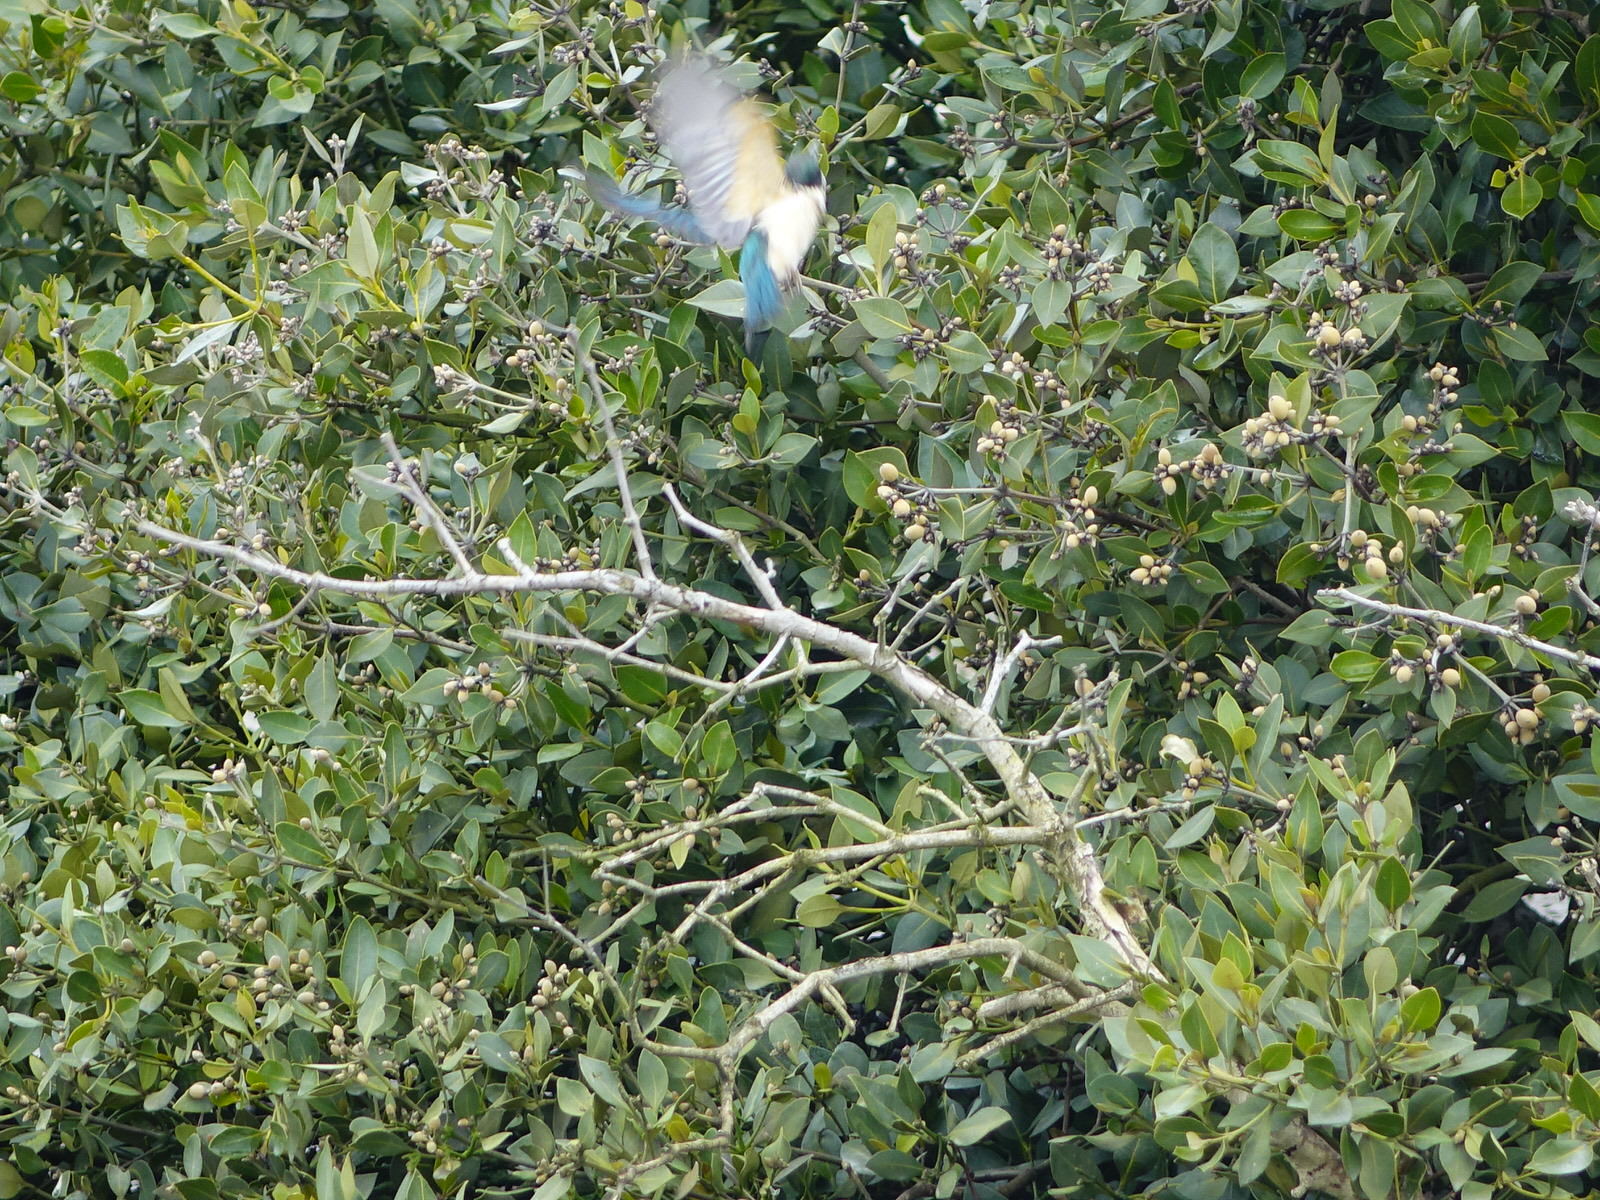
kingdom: Animalia
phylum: Chordata
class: Aves
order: Coraciiformes
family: Alcedinidae
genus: Todiramphus
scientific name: Todiramphus sanctus
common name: Sacred kingfisher
